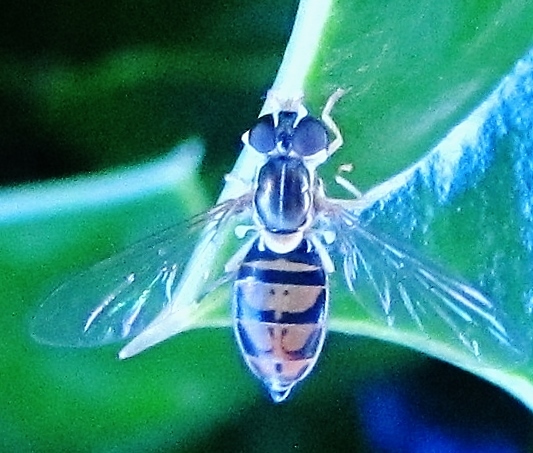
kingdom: Animalia
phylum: Arthropoda
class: Insecta
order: Diptera
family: Syrphidae
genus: Toxomerus
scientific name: Toxomerus marginatus
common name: Syrphid fly
